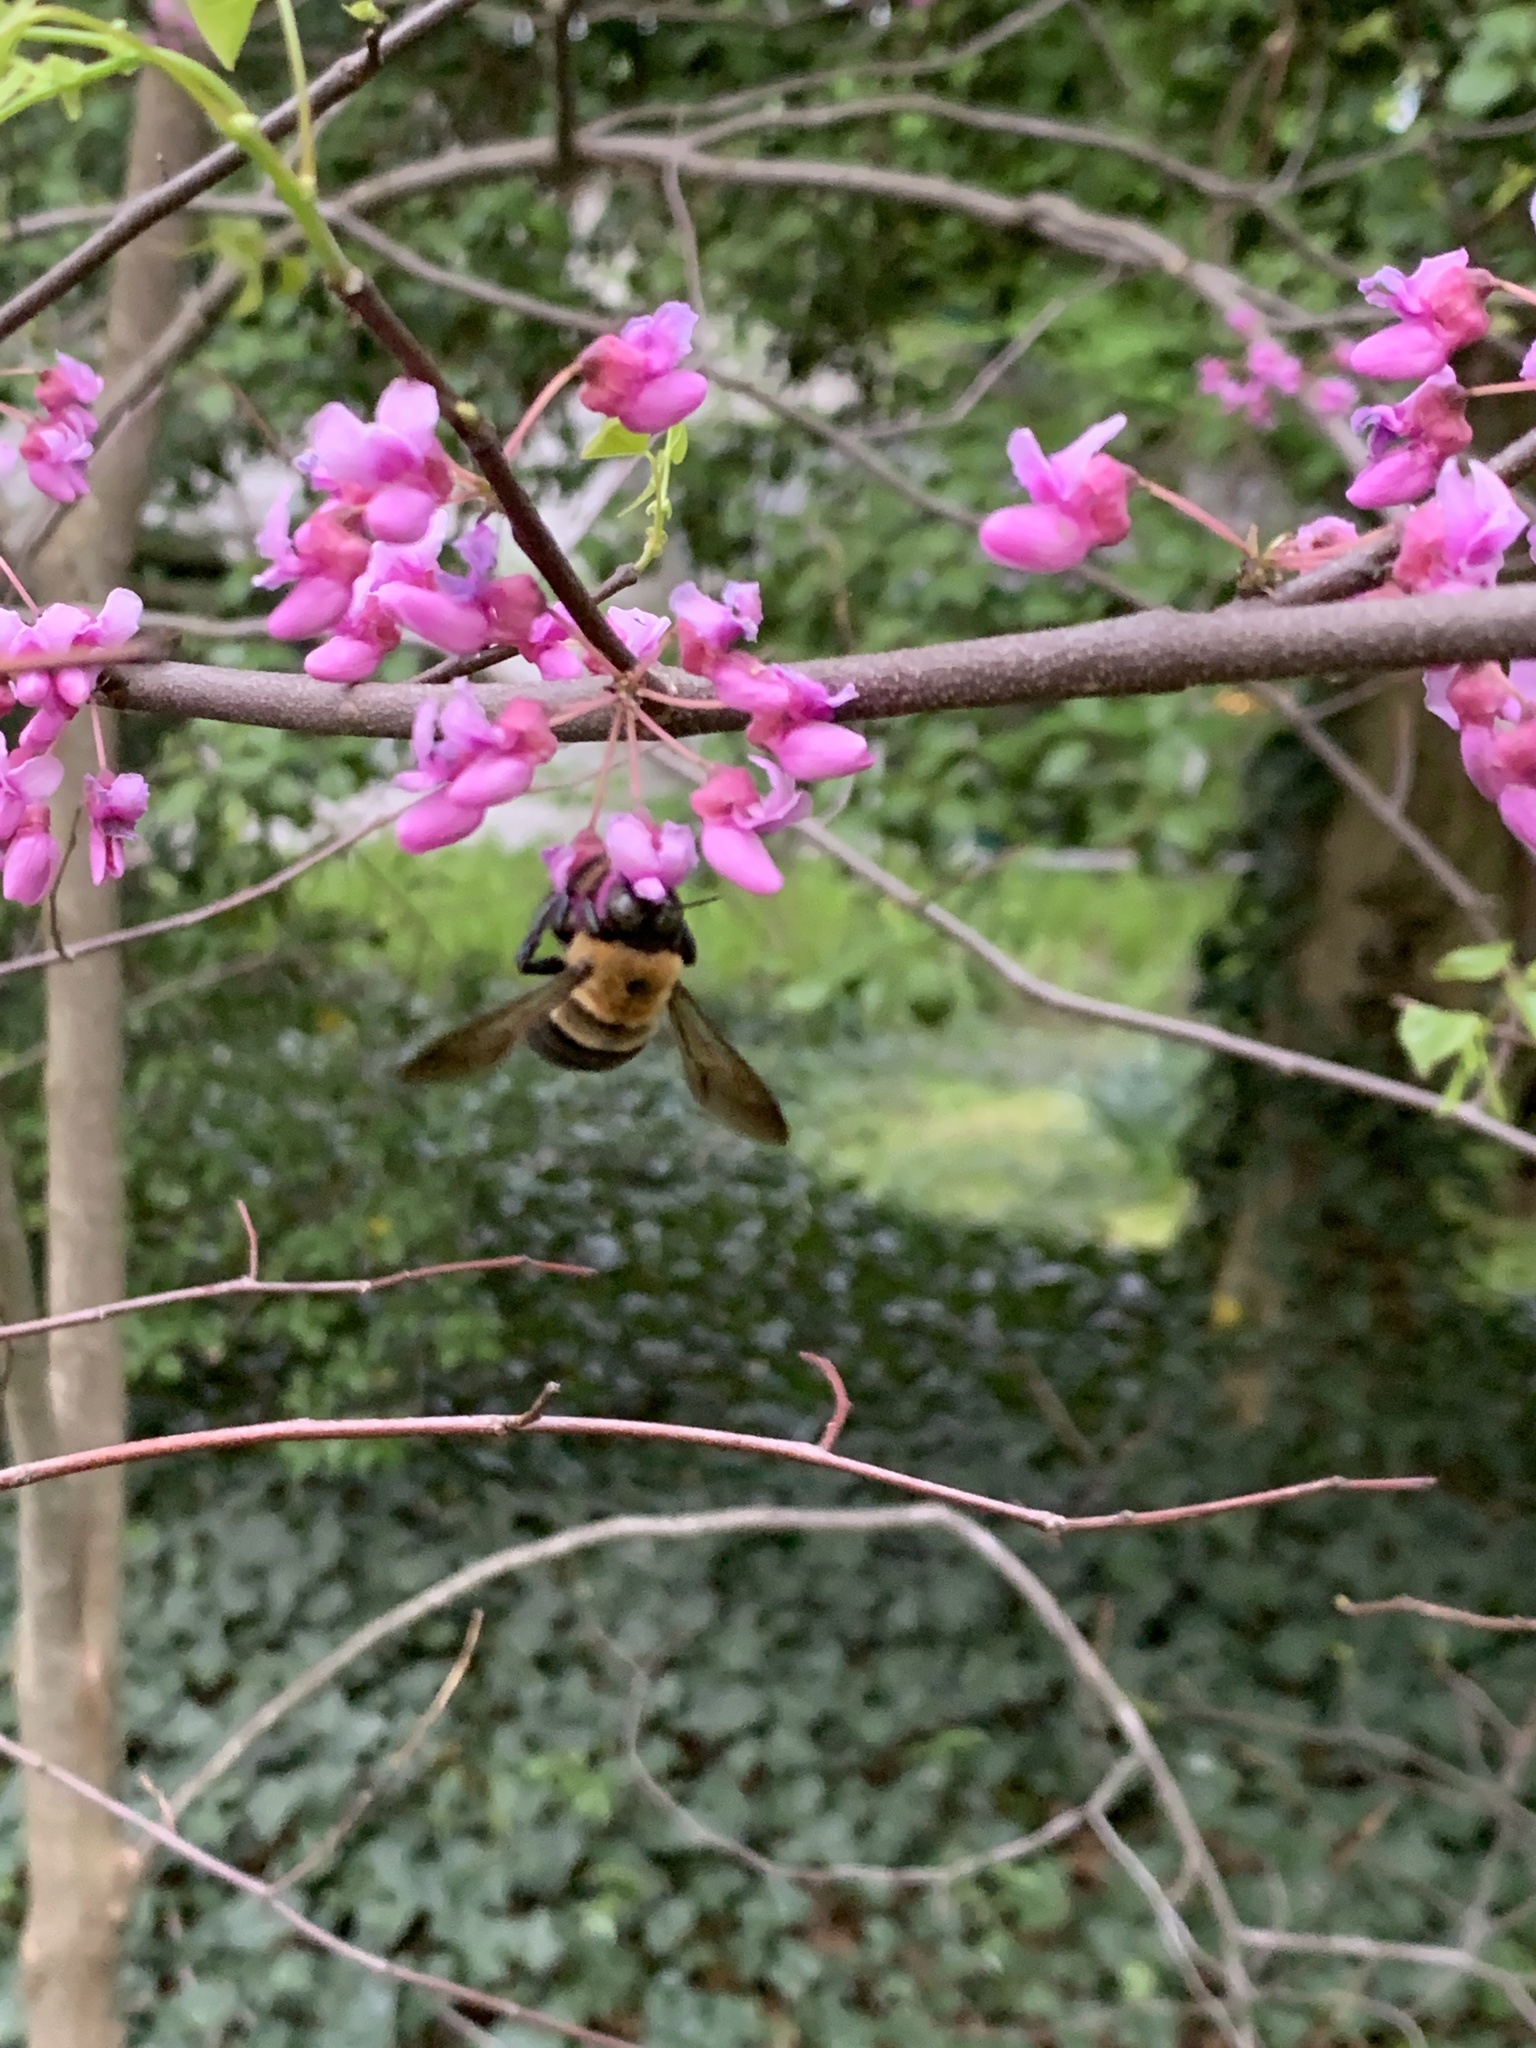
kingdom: Animalia
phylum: Arthropoda
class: Insecta
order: Hymenoptera
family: Apidae
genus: Xylocopa
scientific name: Xylocopa virginica
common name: Carpenter bee
